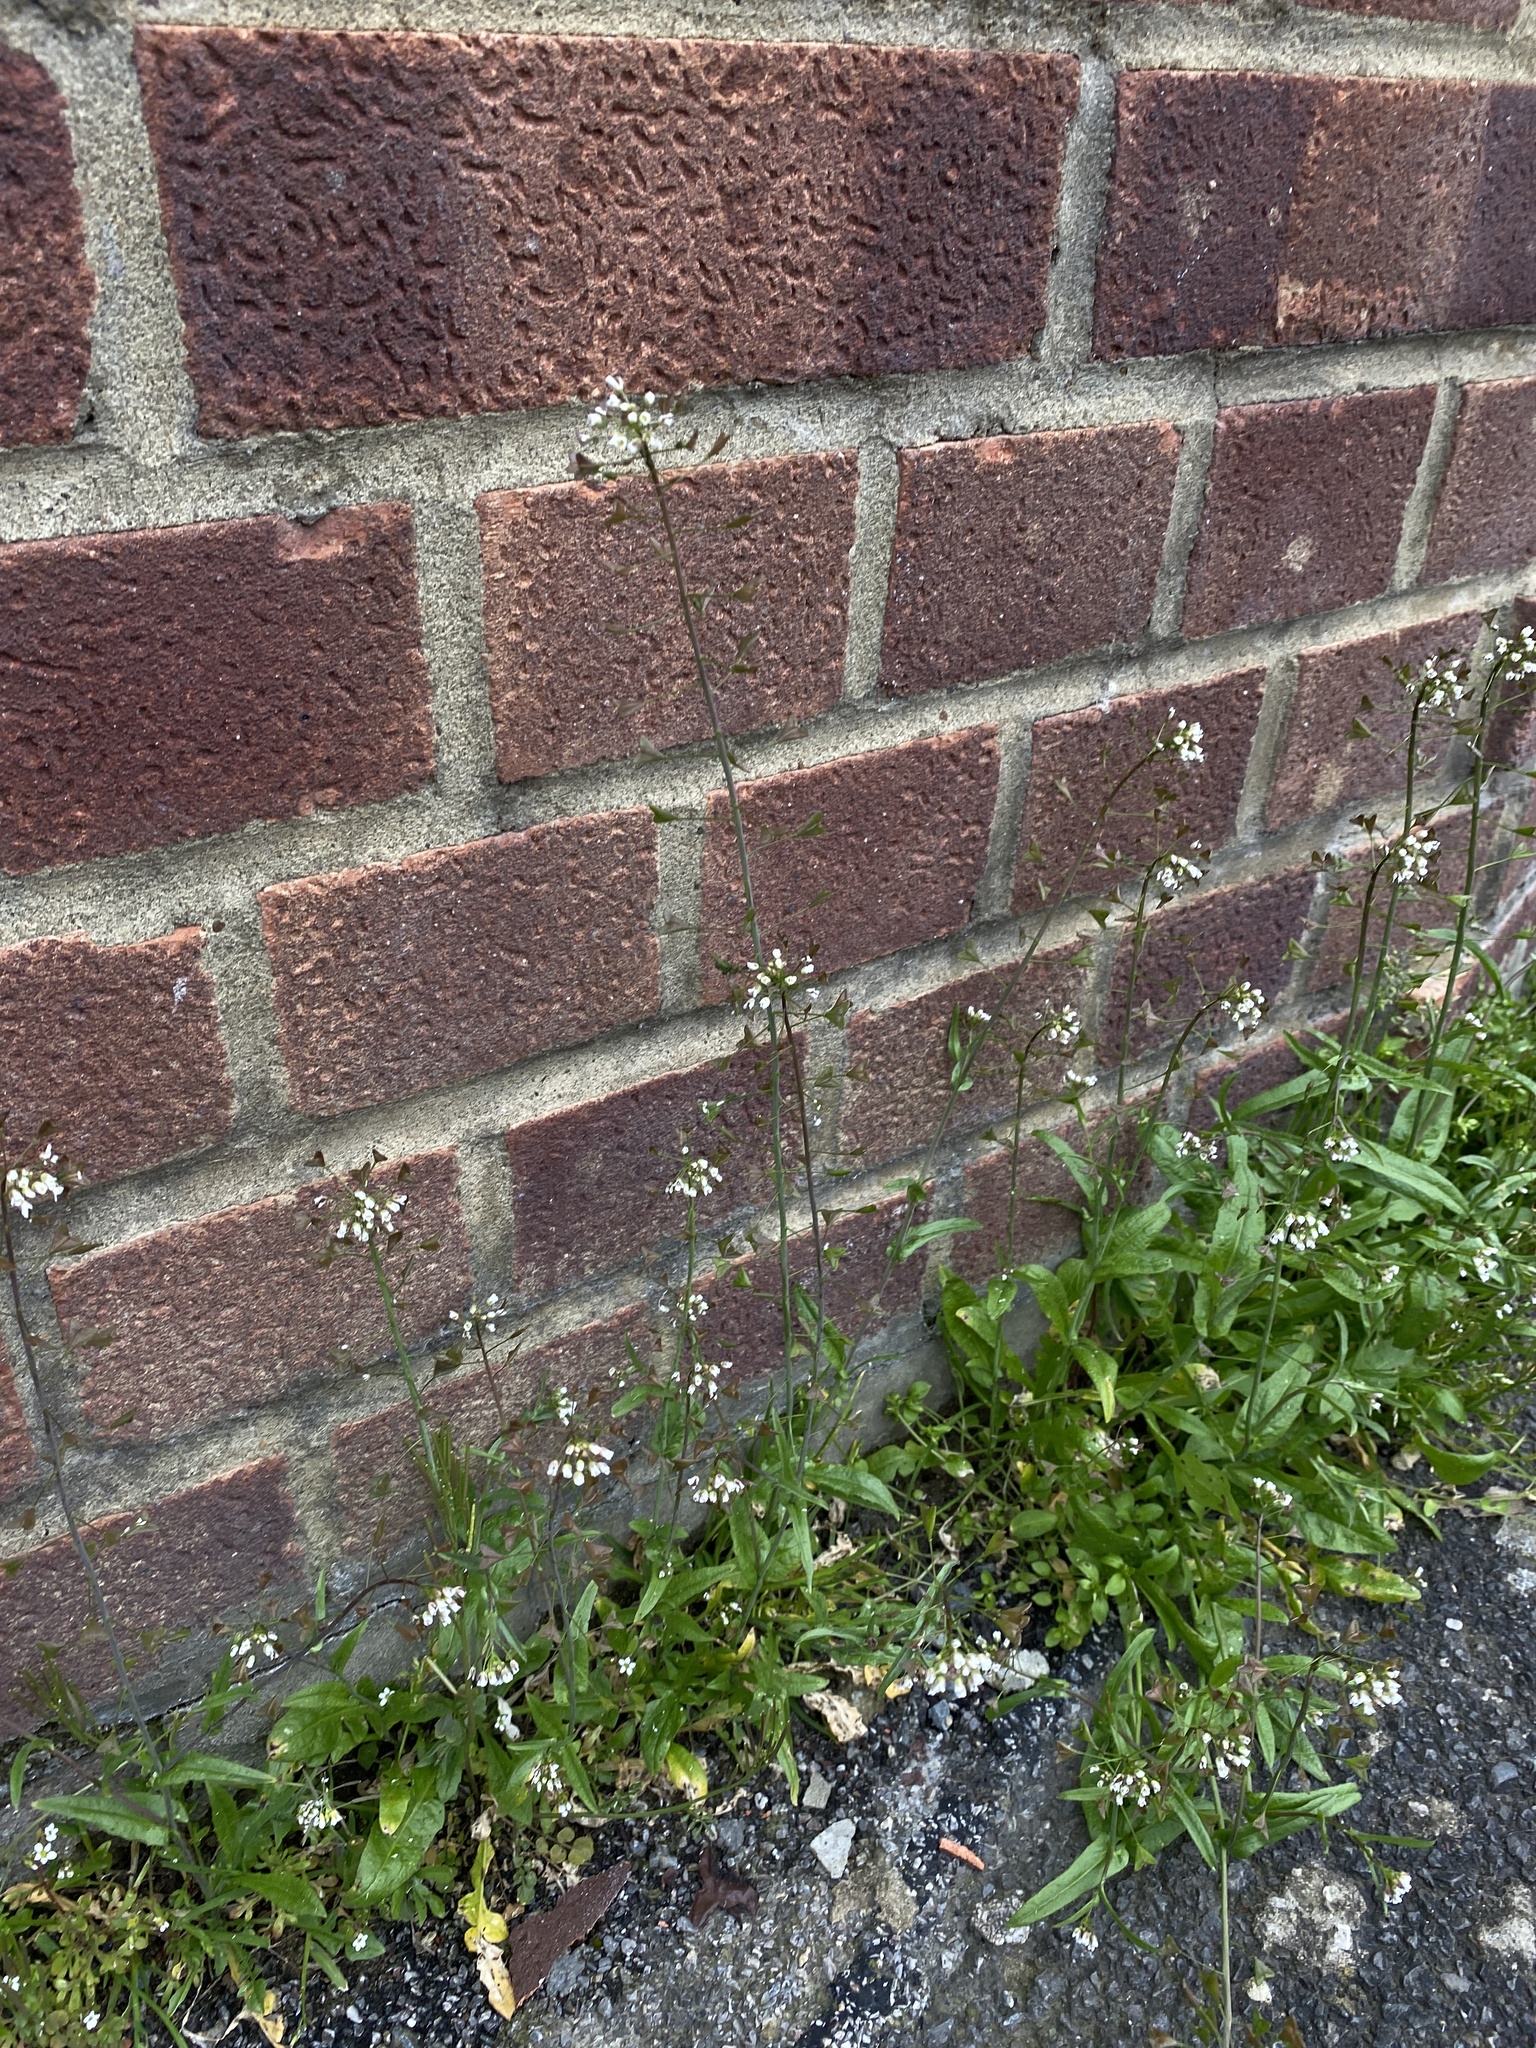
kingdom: Plantae
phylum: Tracheophyta
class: Magnoliopsida
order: Brassicales
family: Brassicaceae
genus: Capsella
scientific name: Capsella bursa-pastoris
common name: Shepherd's purse
